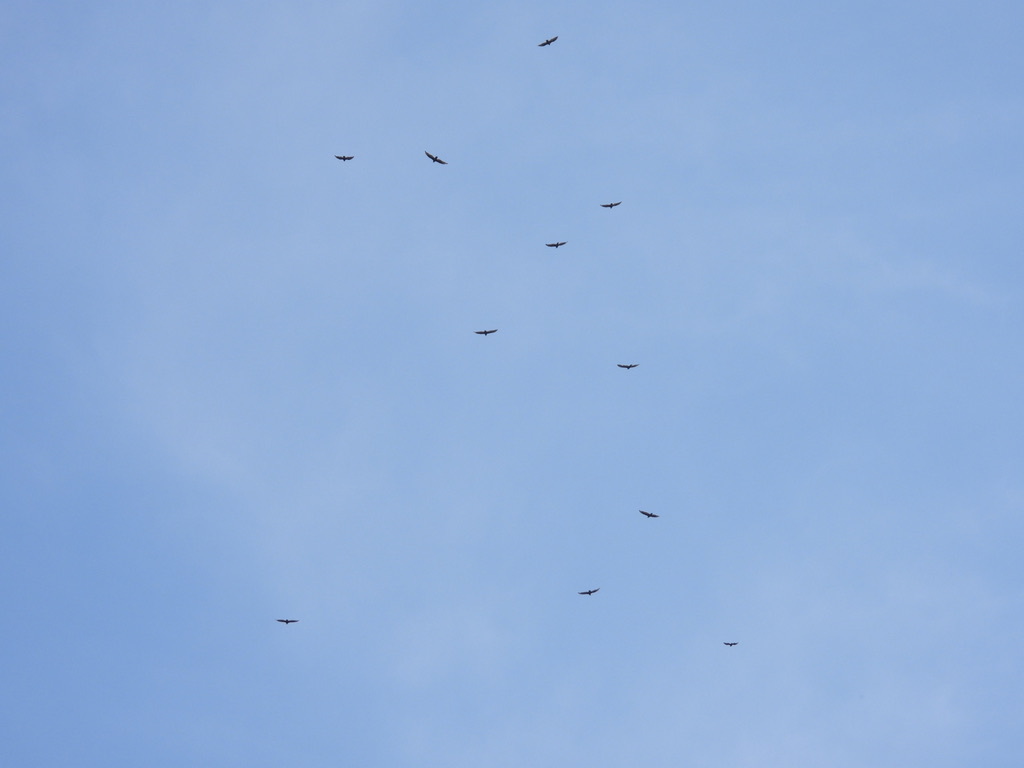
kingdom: Animalia
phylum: Chordata
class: Aves
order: Accipitriformes
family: Cathartidae
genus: Cathartes
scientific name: Cathartes aura
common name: Turkey vulture
